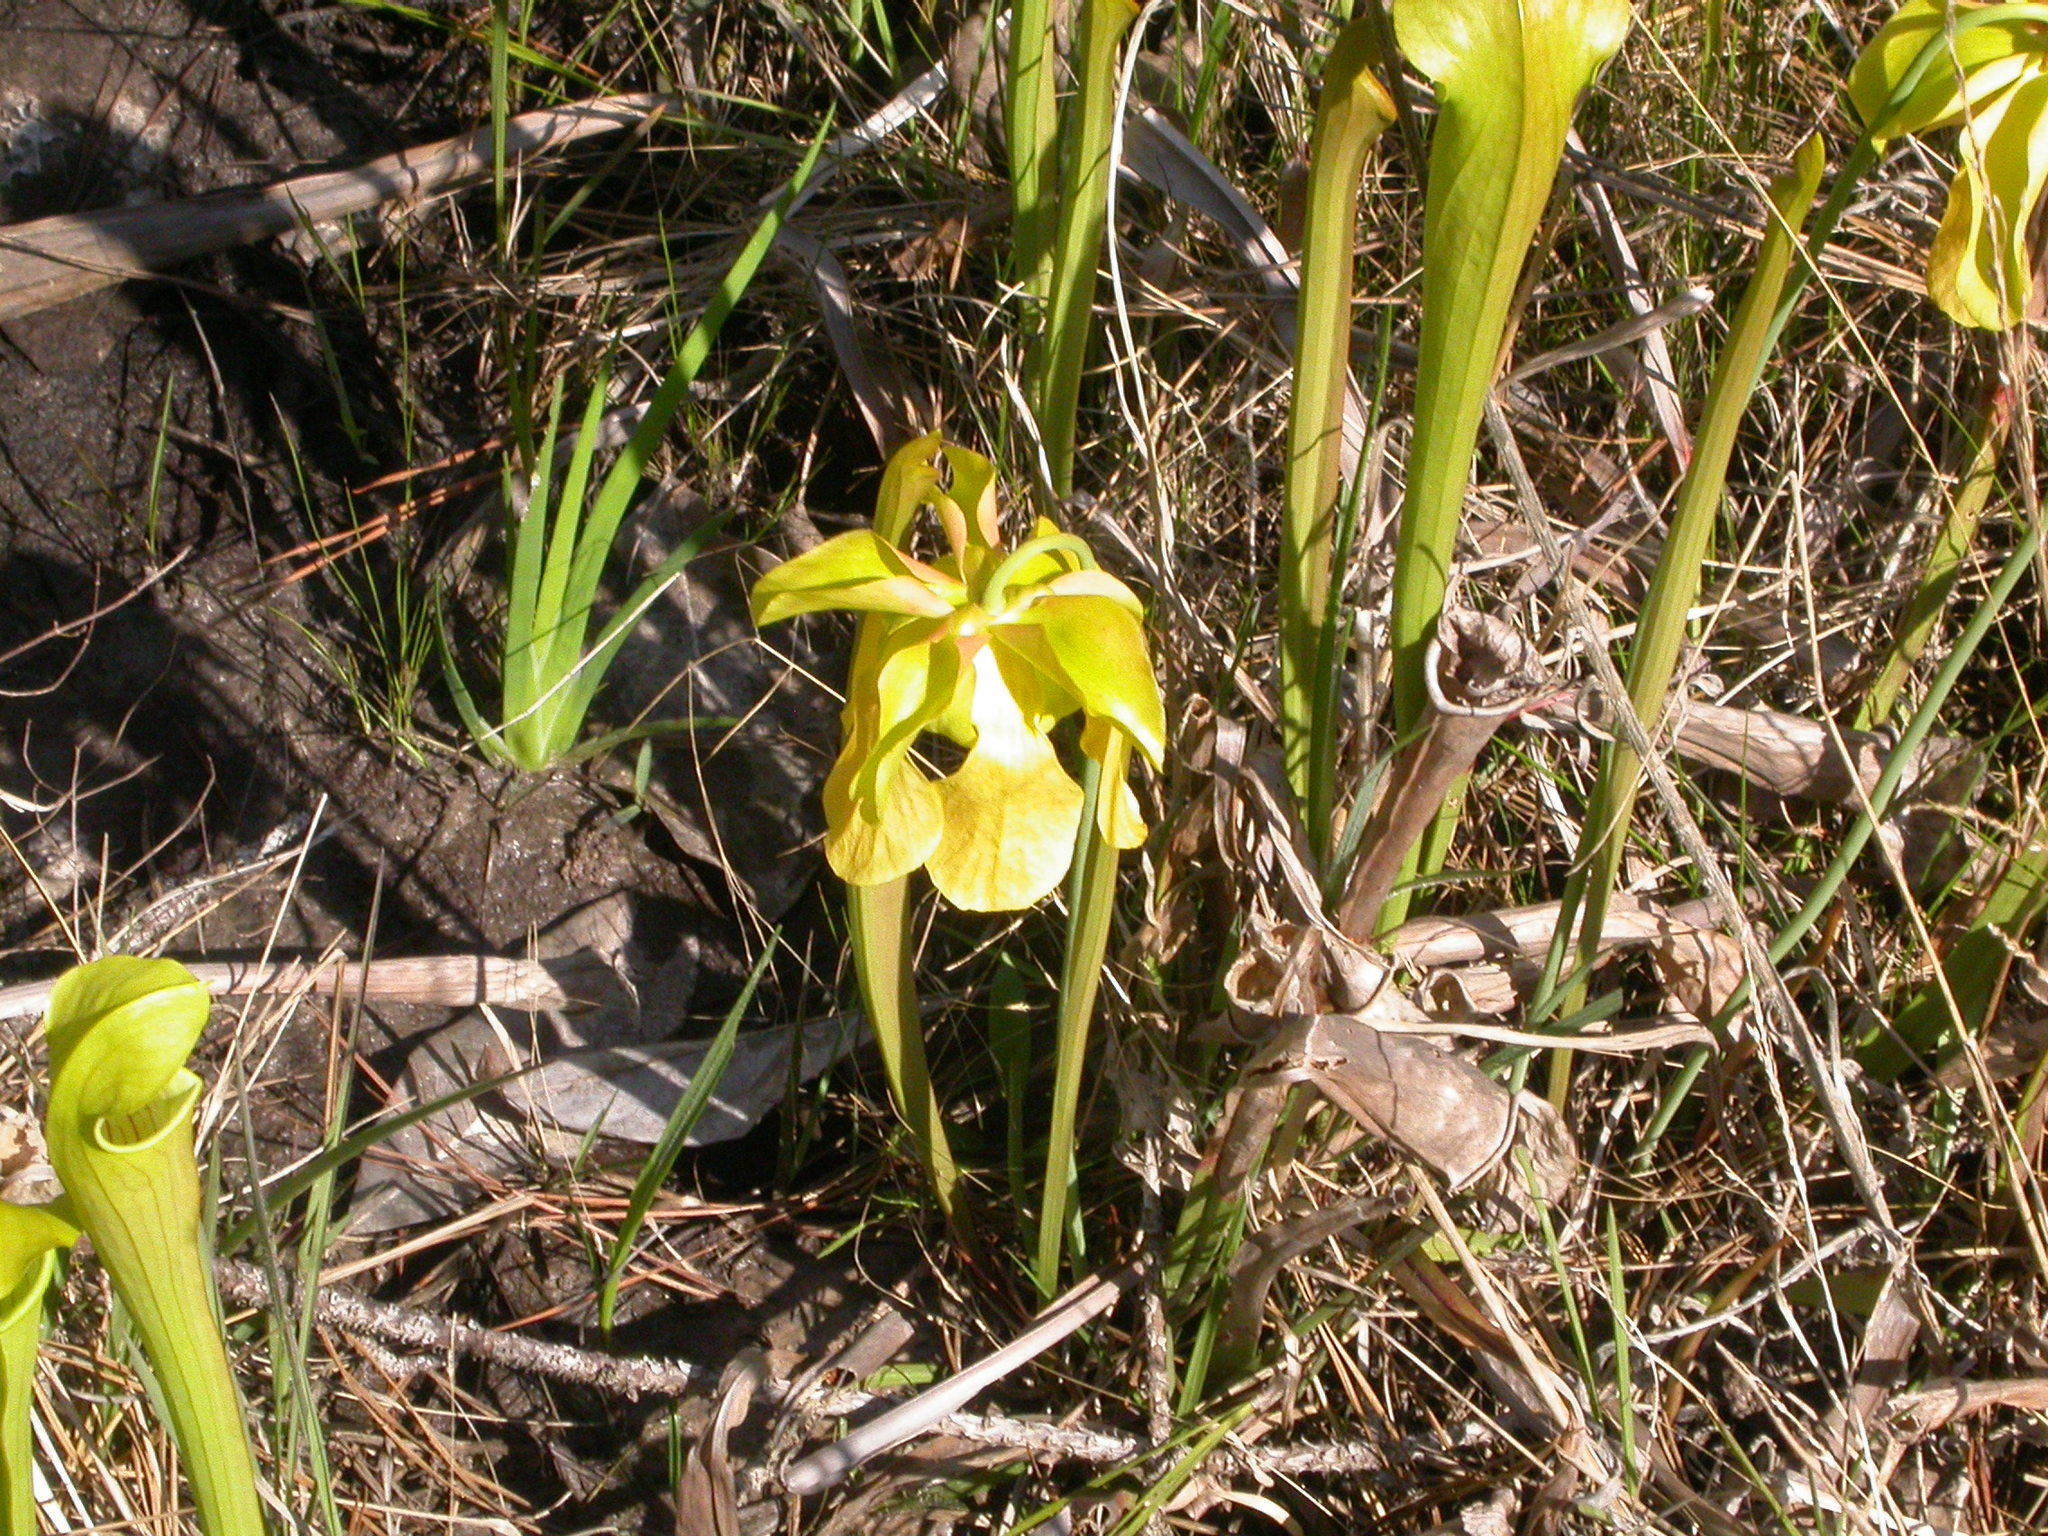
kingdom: Plantae
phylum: Tracheophyta
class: Magnoliopsida
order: Ericales
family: Sarraceniaceae
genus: Sarracenia
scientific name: Sarracenia alata
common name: Yellow trumpets
